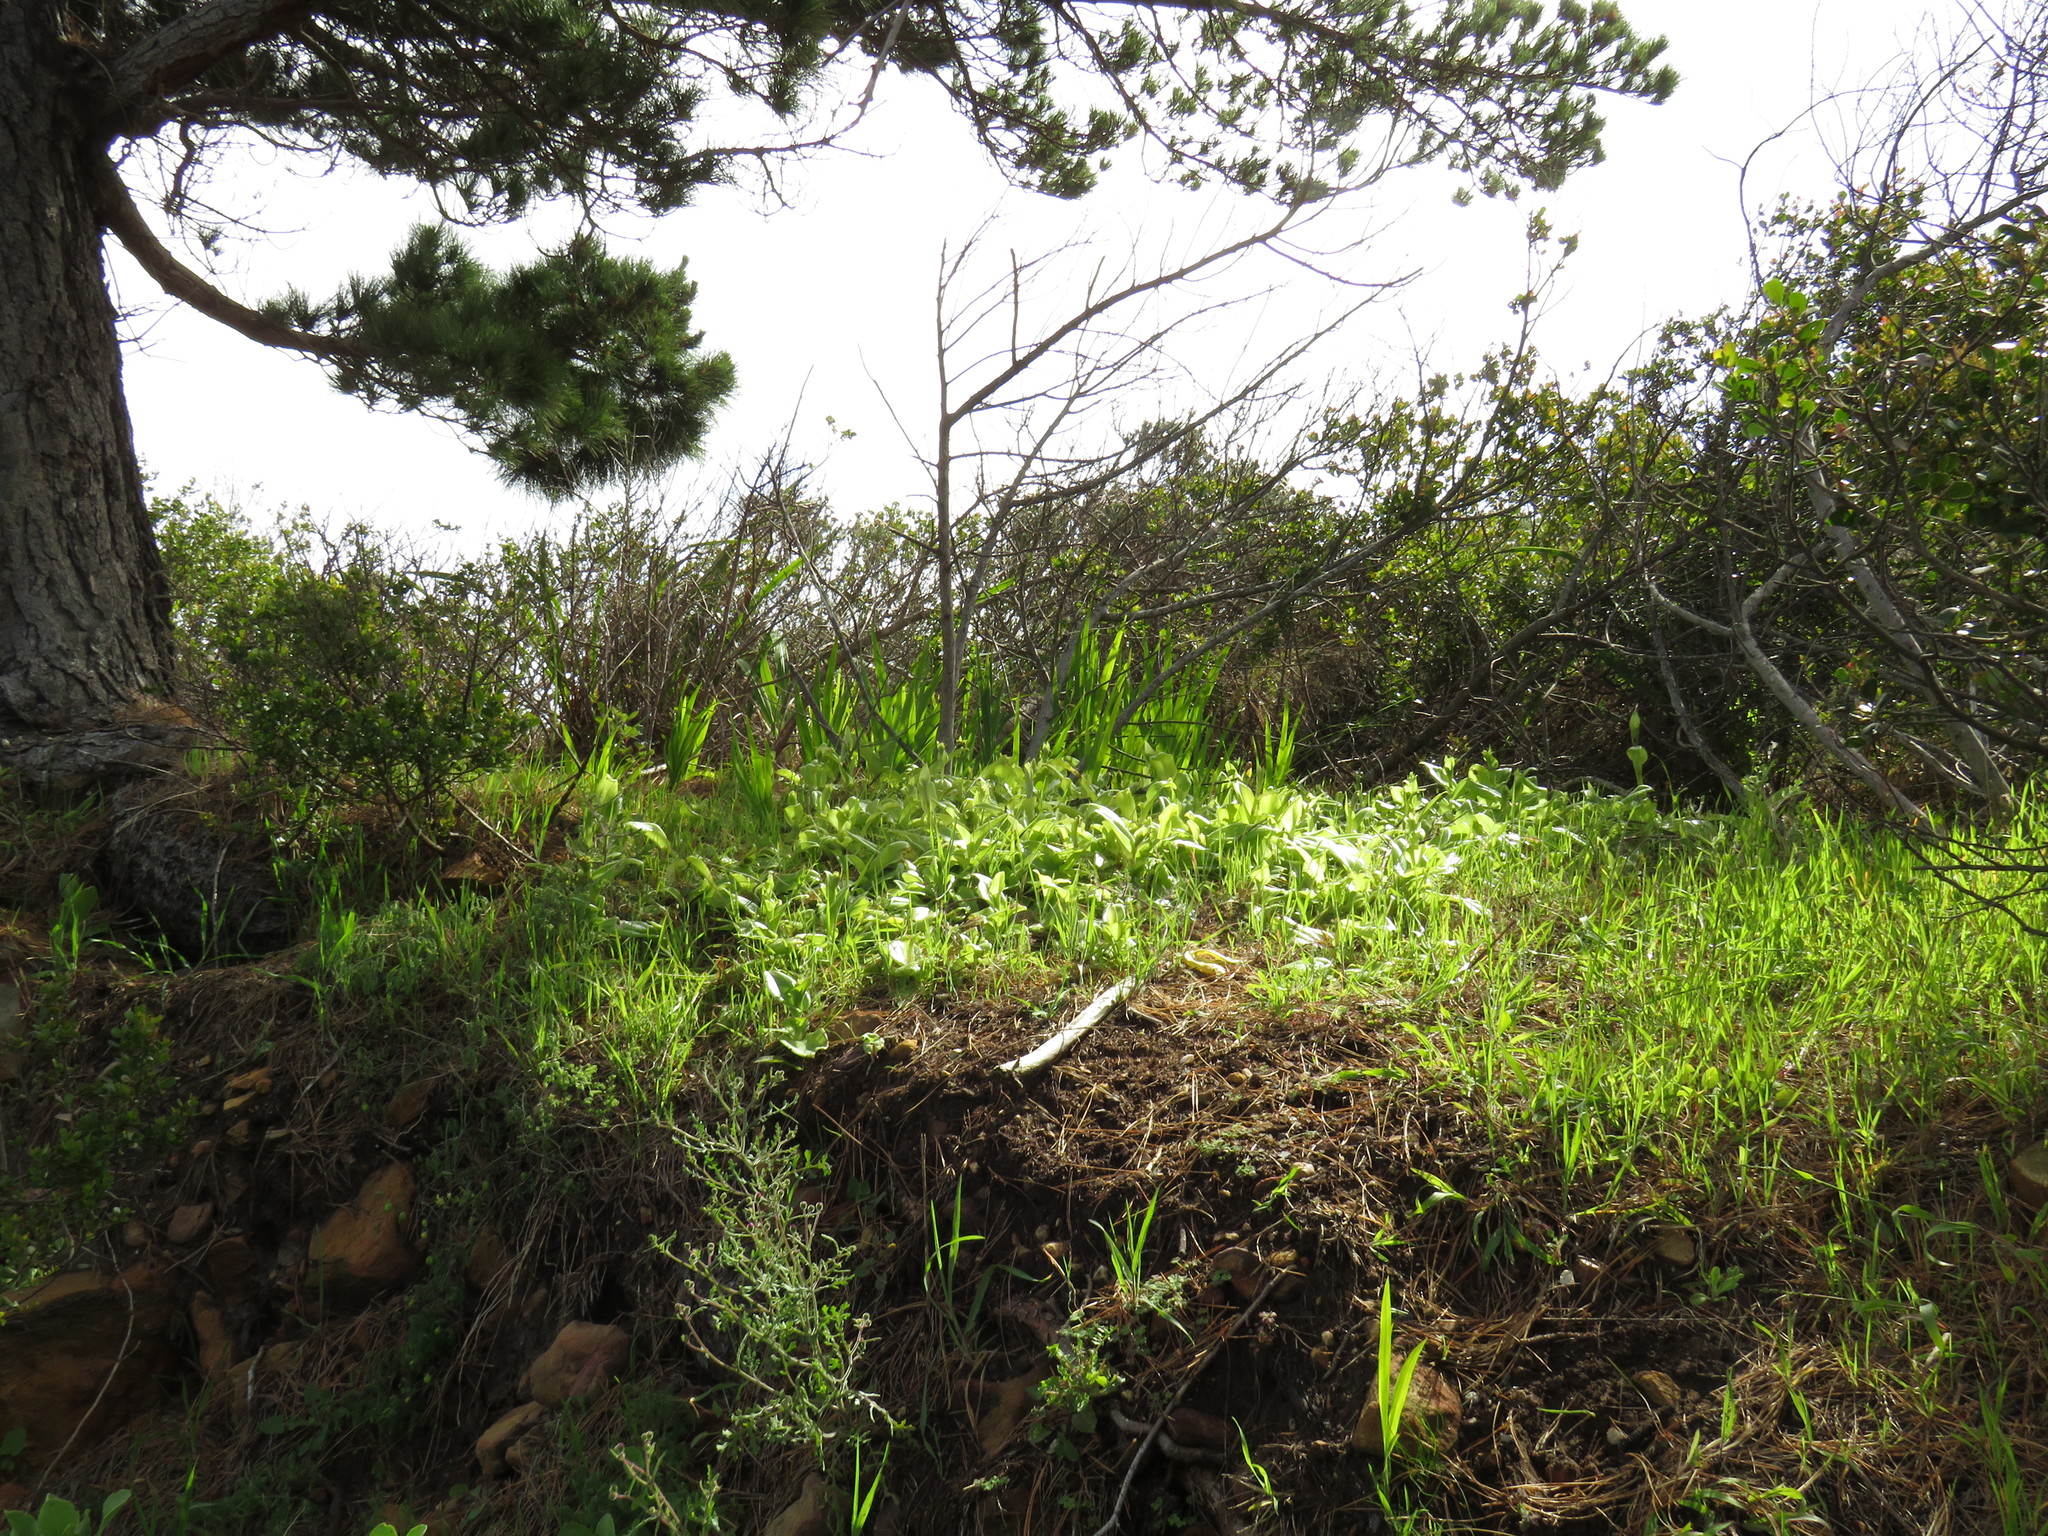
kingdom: Plantae
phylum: Tracheophyta
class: Liliopsida
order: Asparagales
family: Orchidaceae
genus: Satyrium
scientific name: Satyrium odorum
